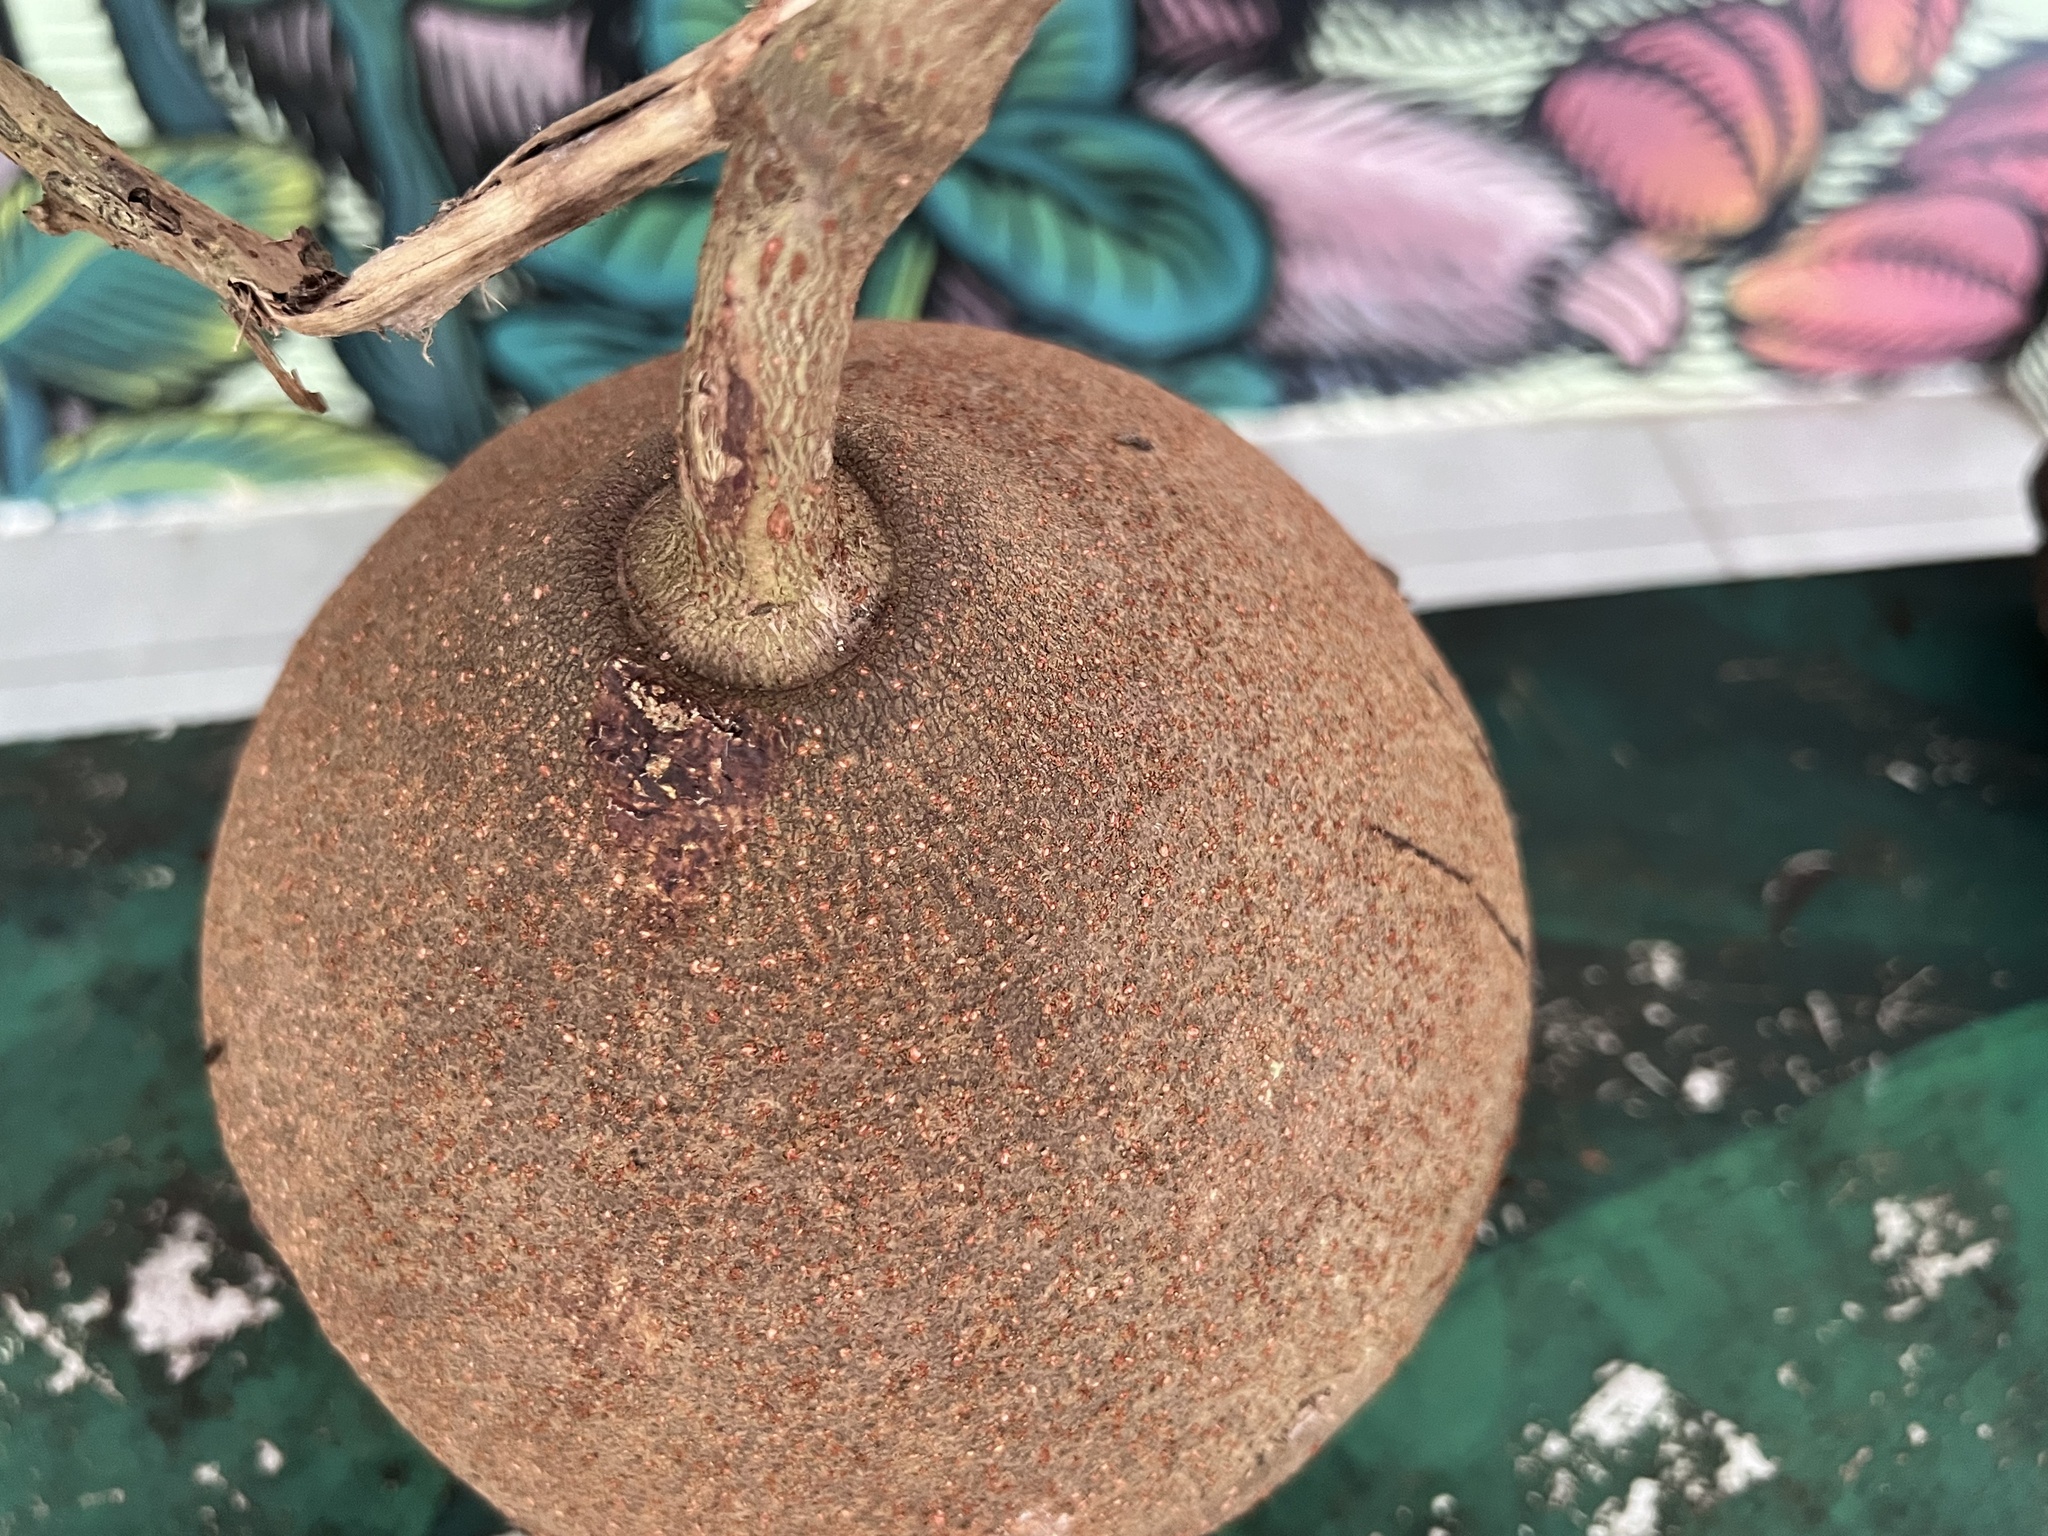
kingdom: Plantae
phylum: Tracheophyta
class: Magnoliopsida
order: Ericales
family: Lecythidaceae
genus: Couroupita
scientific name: Couroupita guianensis
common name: Cannonball tree
